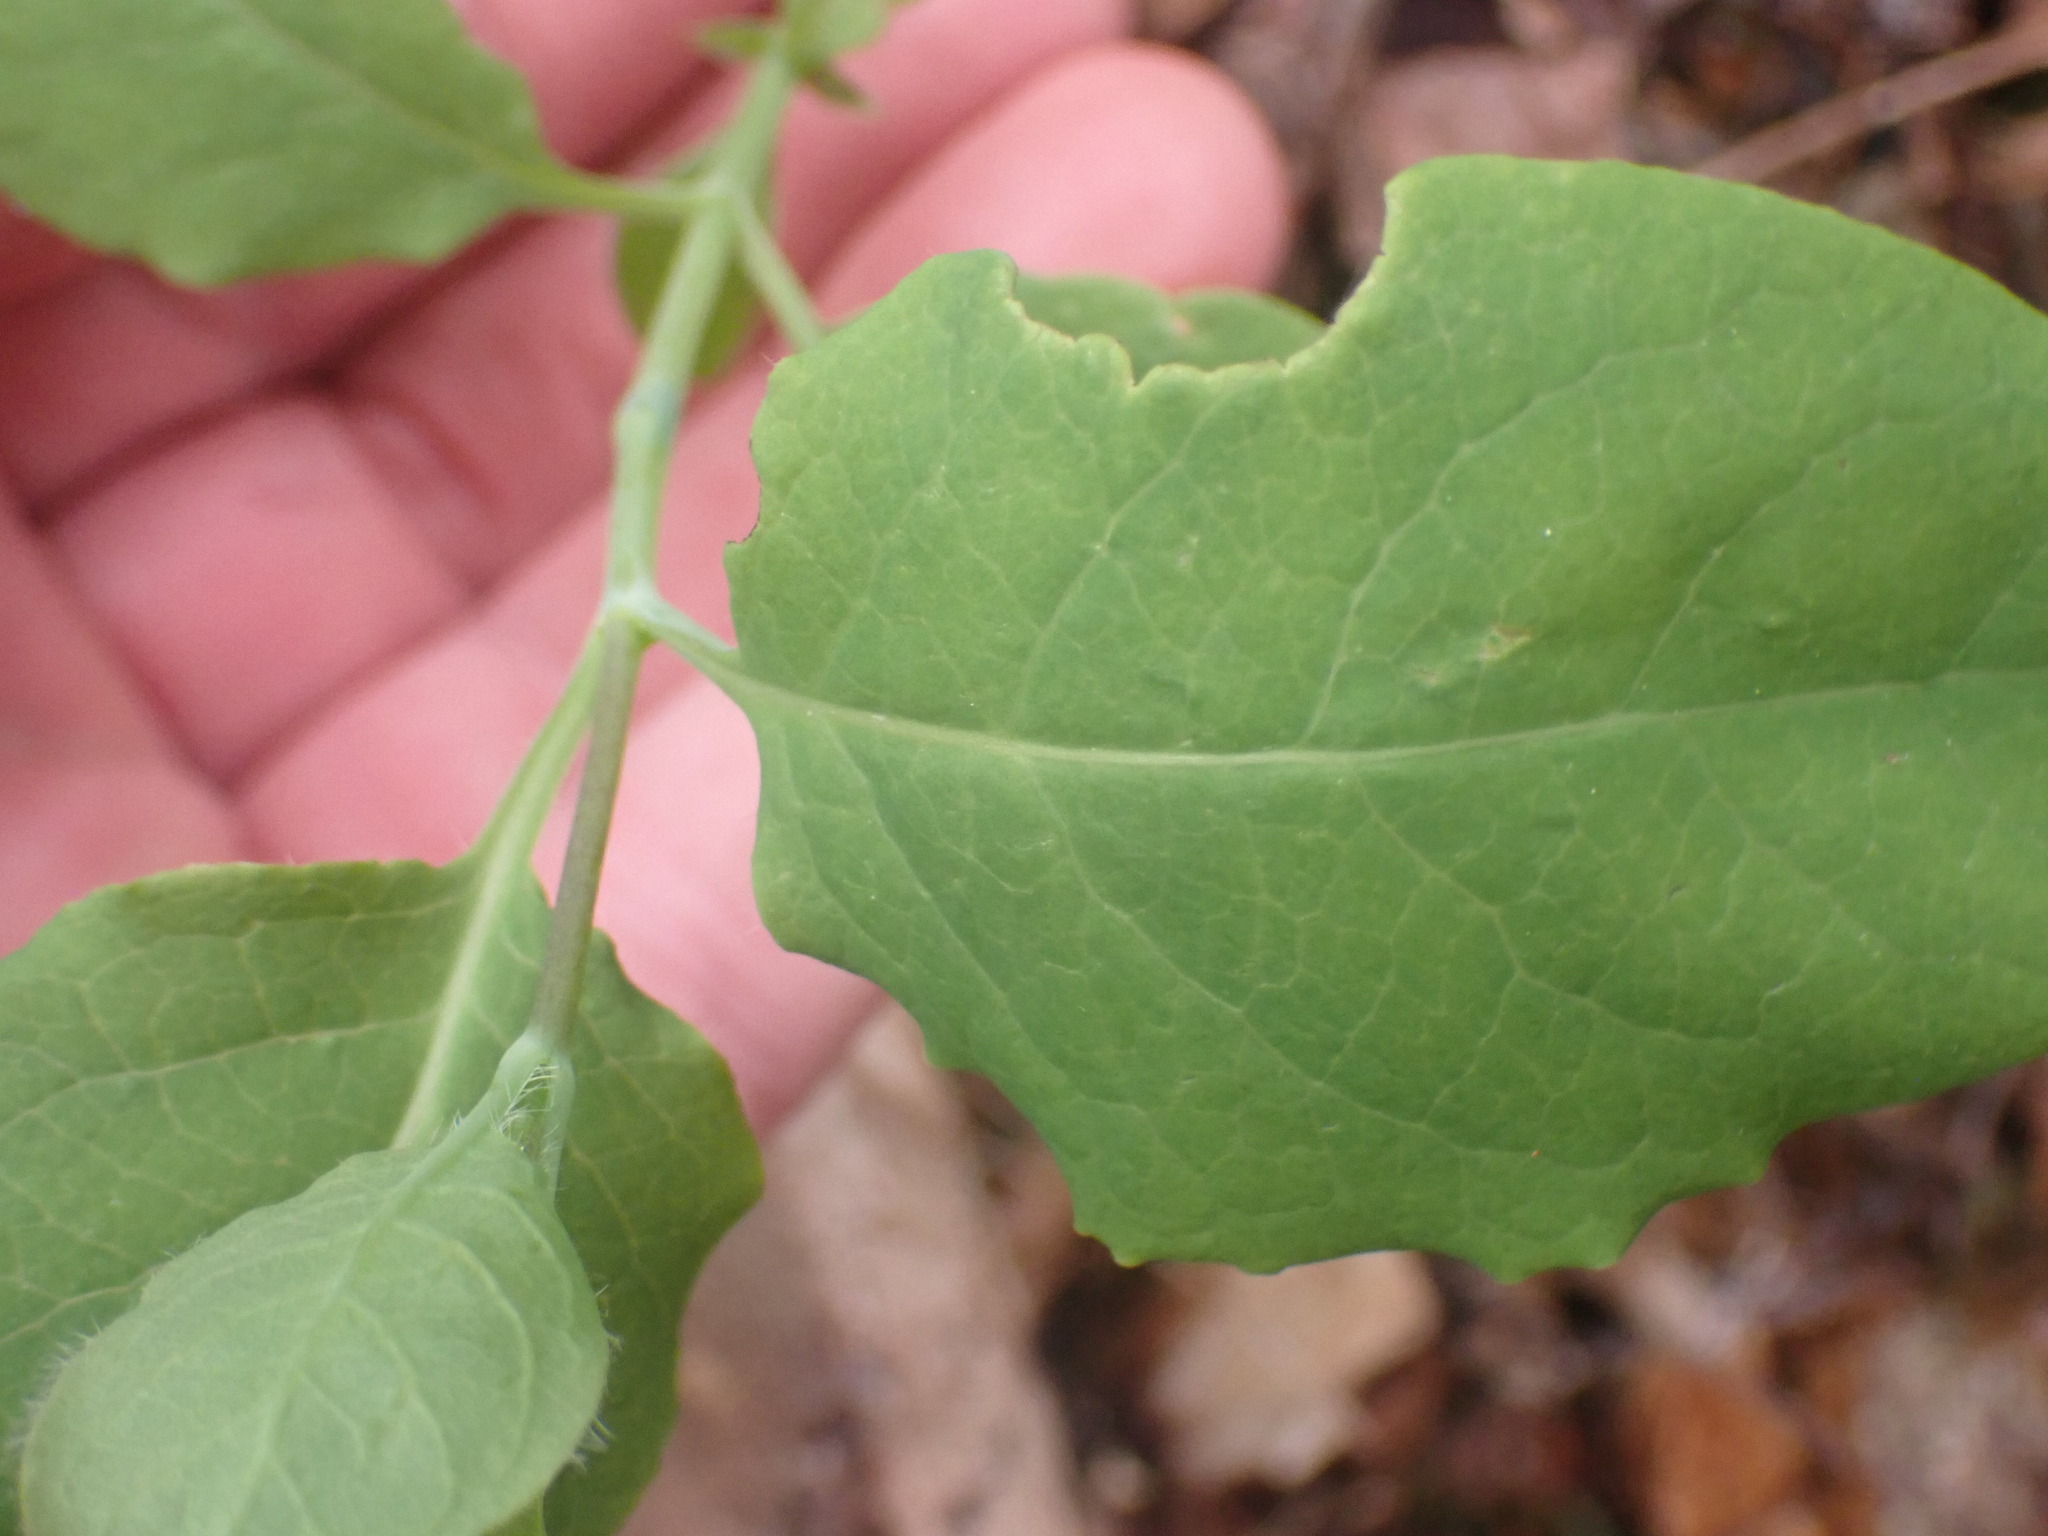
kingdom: Plantae
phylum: Tracheophyta
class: Magnoliopsida
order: Dipsacales
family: Caprifoliaceae
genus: Lonicera
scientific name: Lonicera ciliosa
